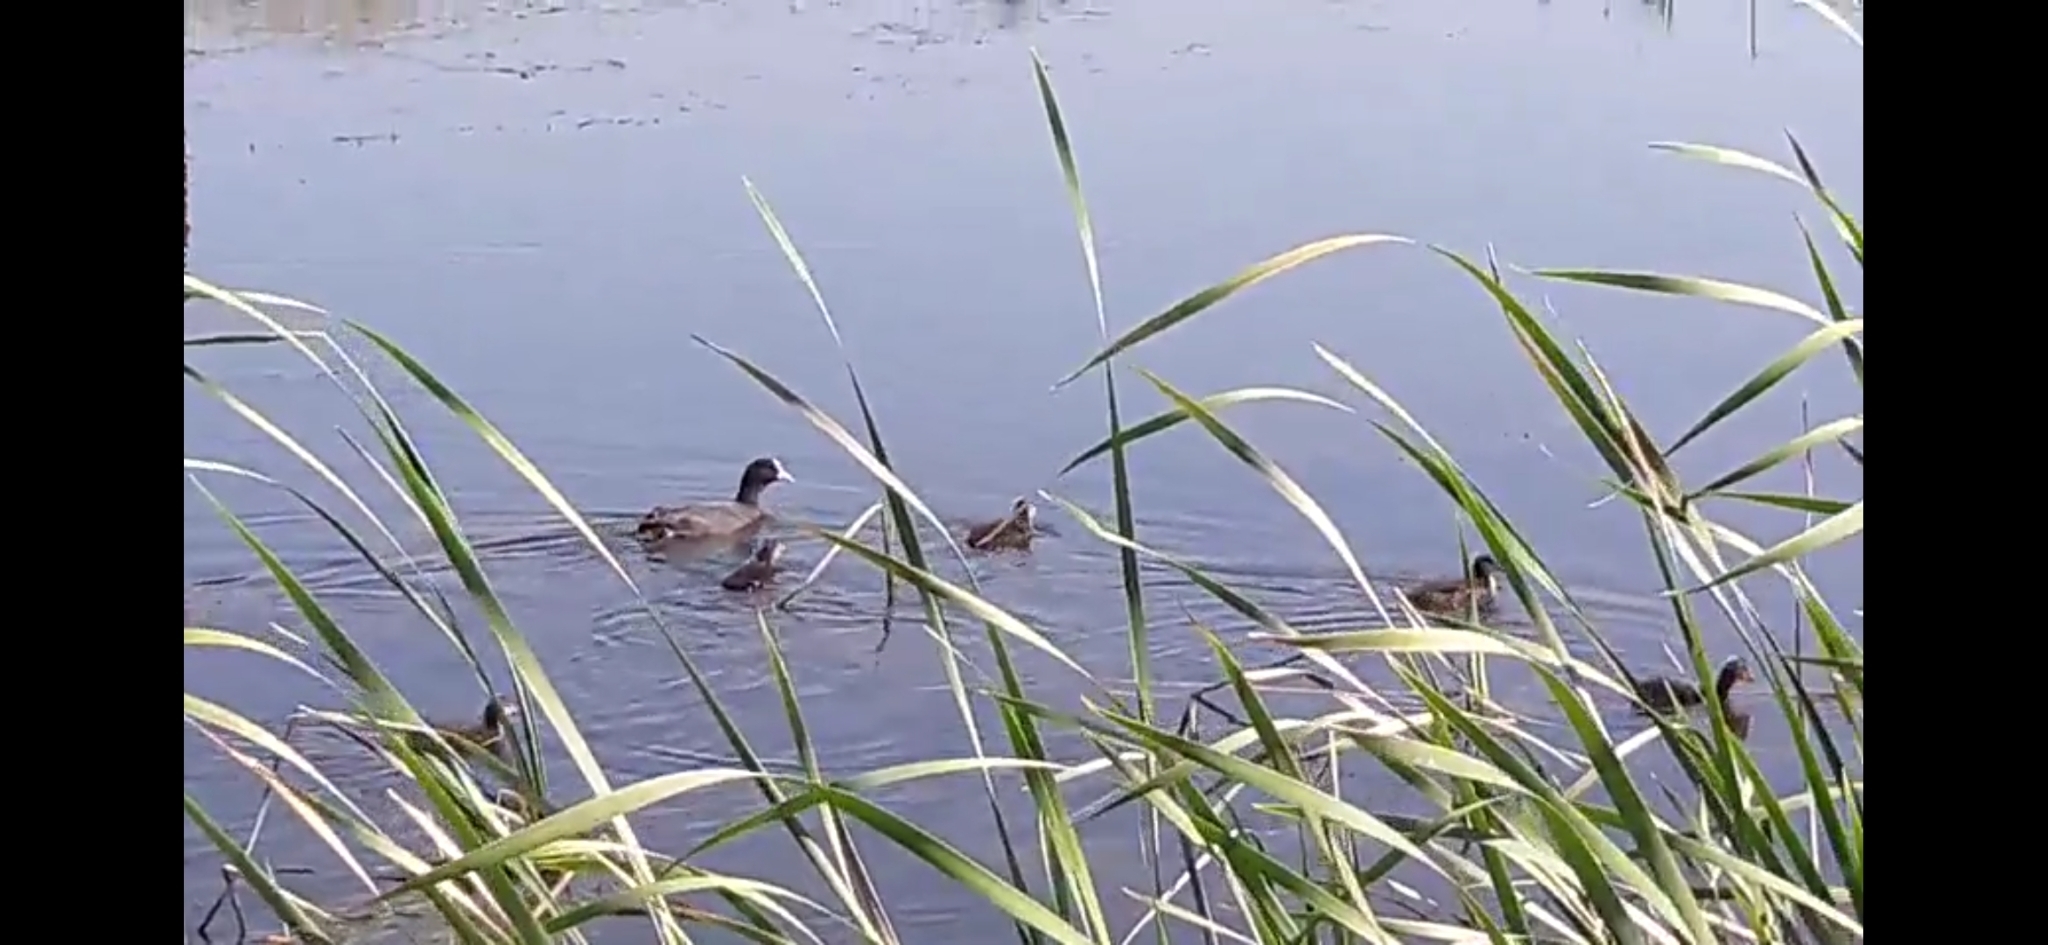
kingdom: Animalia
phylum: Chordata
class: Aves
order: Gruiformes
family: Rallidae
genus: Fulica
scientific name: Fulica atra
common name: Eurasian coot
